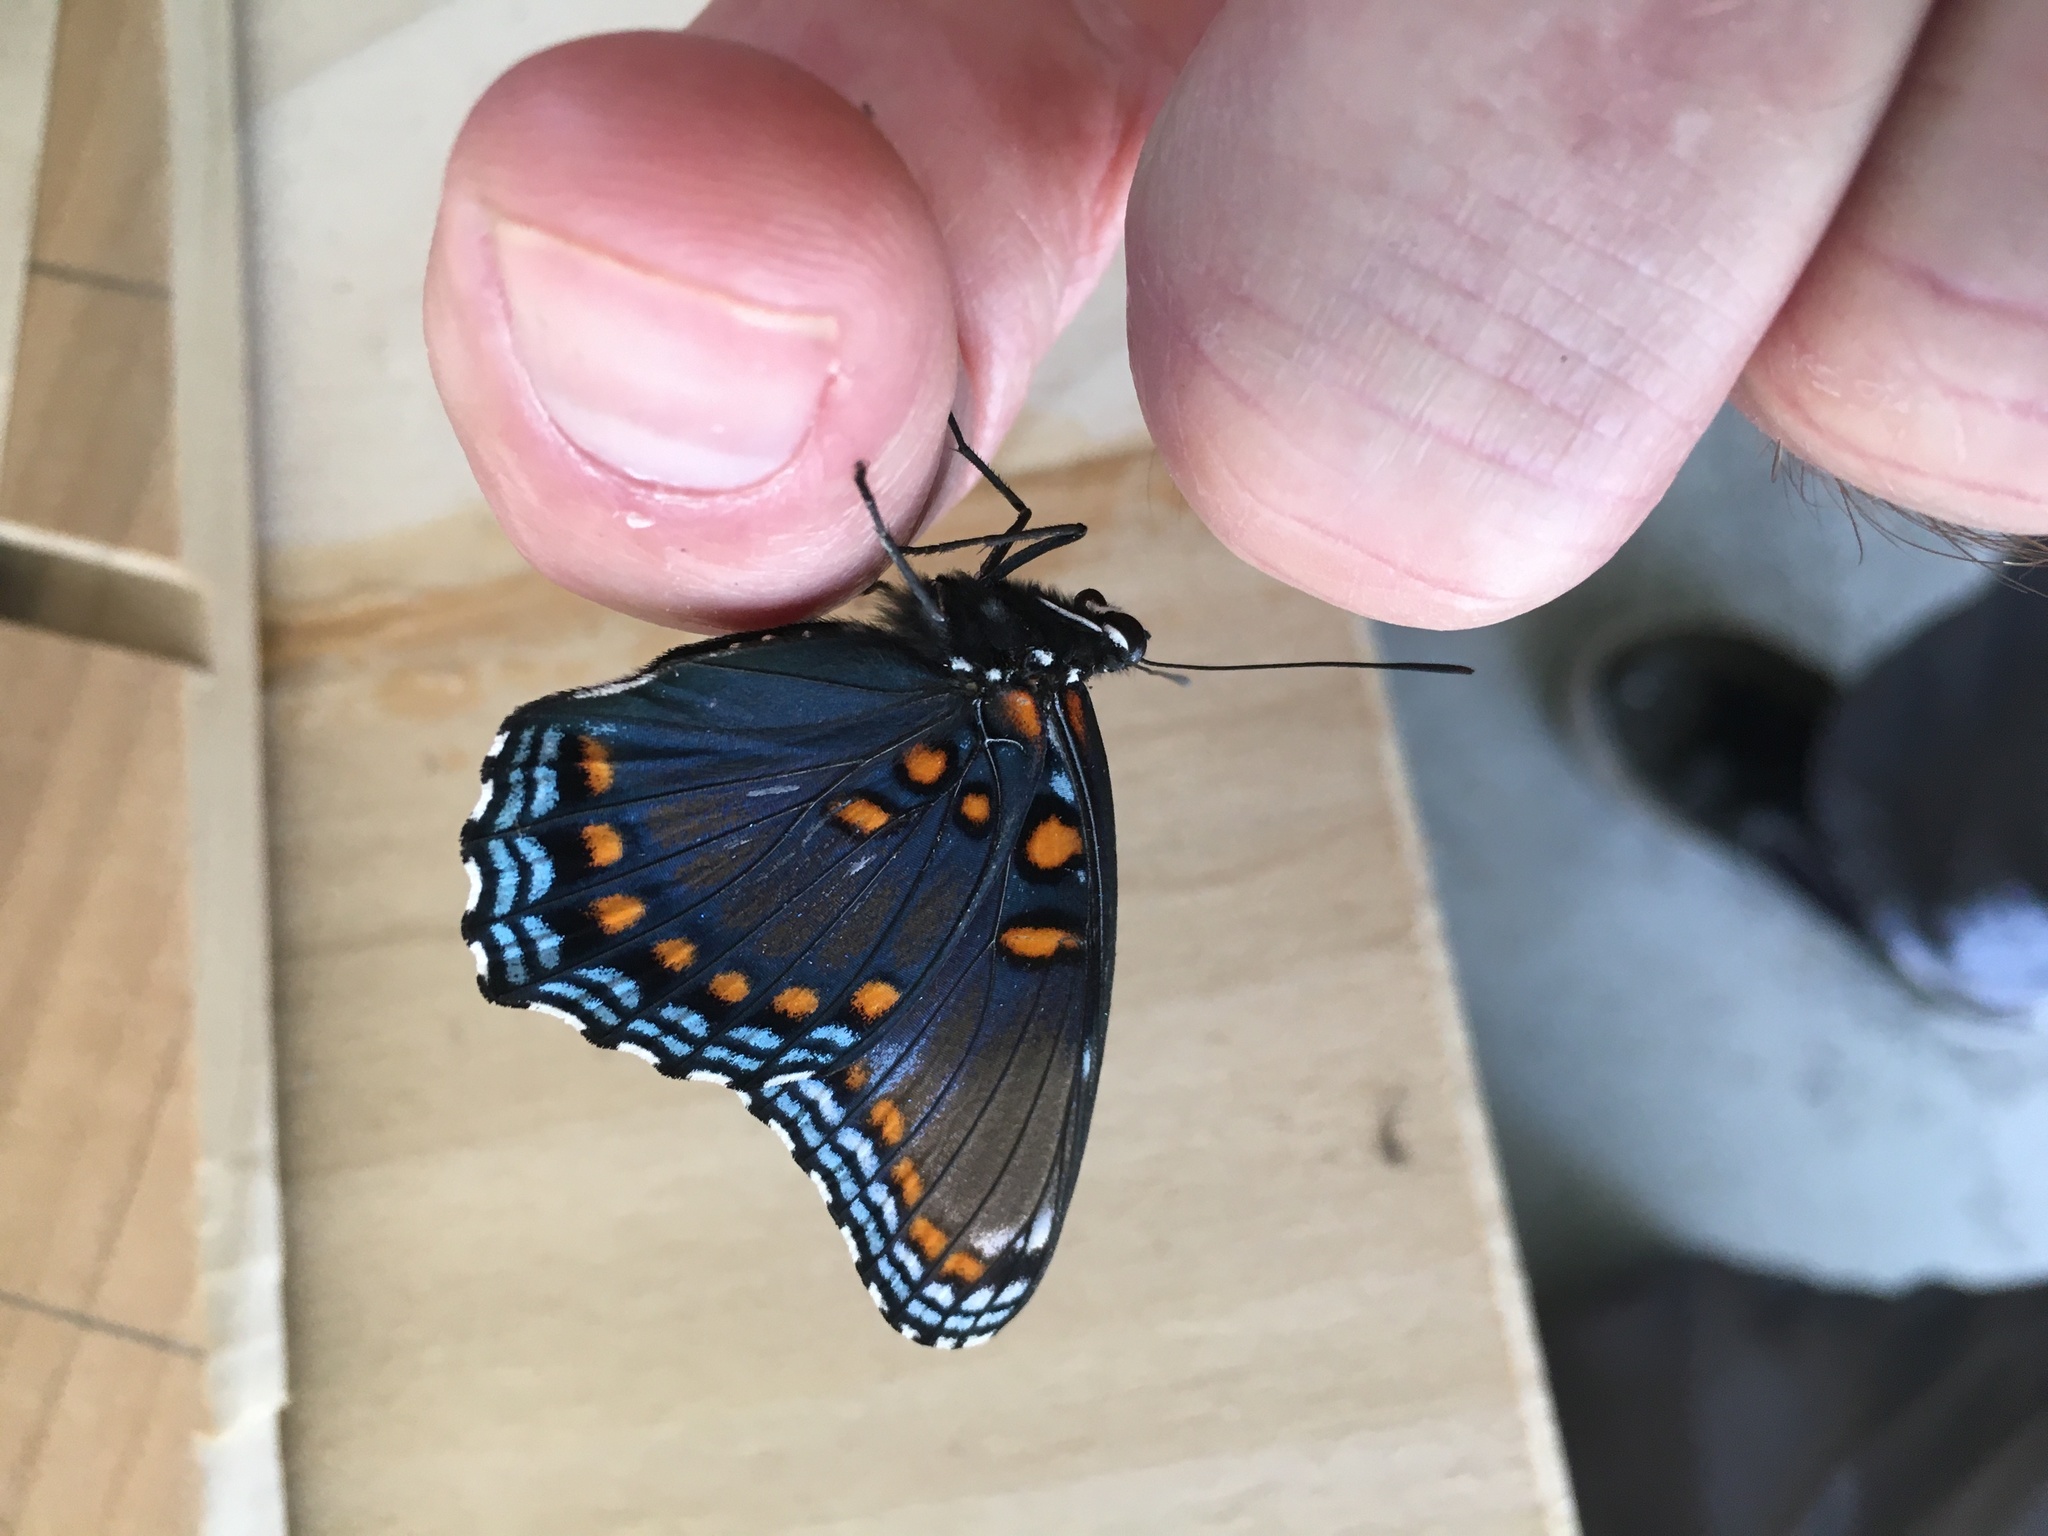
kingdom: Animalia
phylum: Arthropoda
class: Insecta
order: Lepidoptera
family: Nymphalidae
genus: Limenitis
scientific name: Limenitis astyanax
